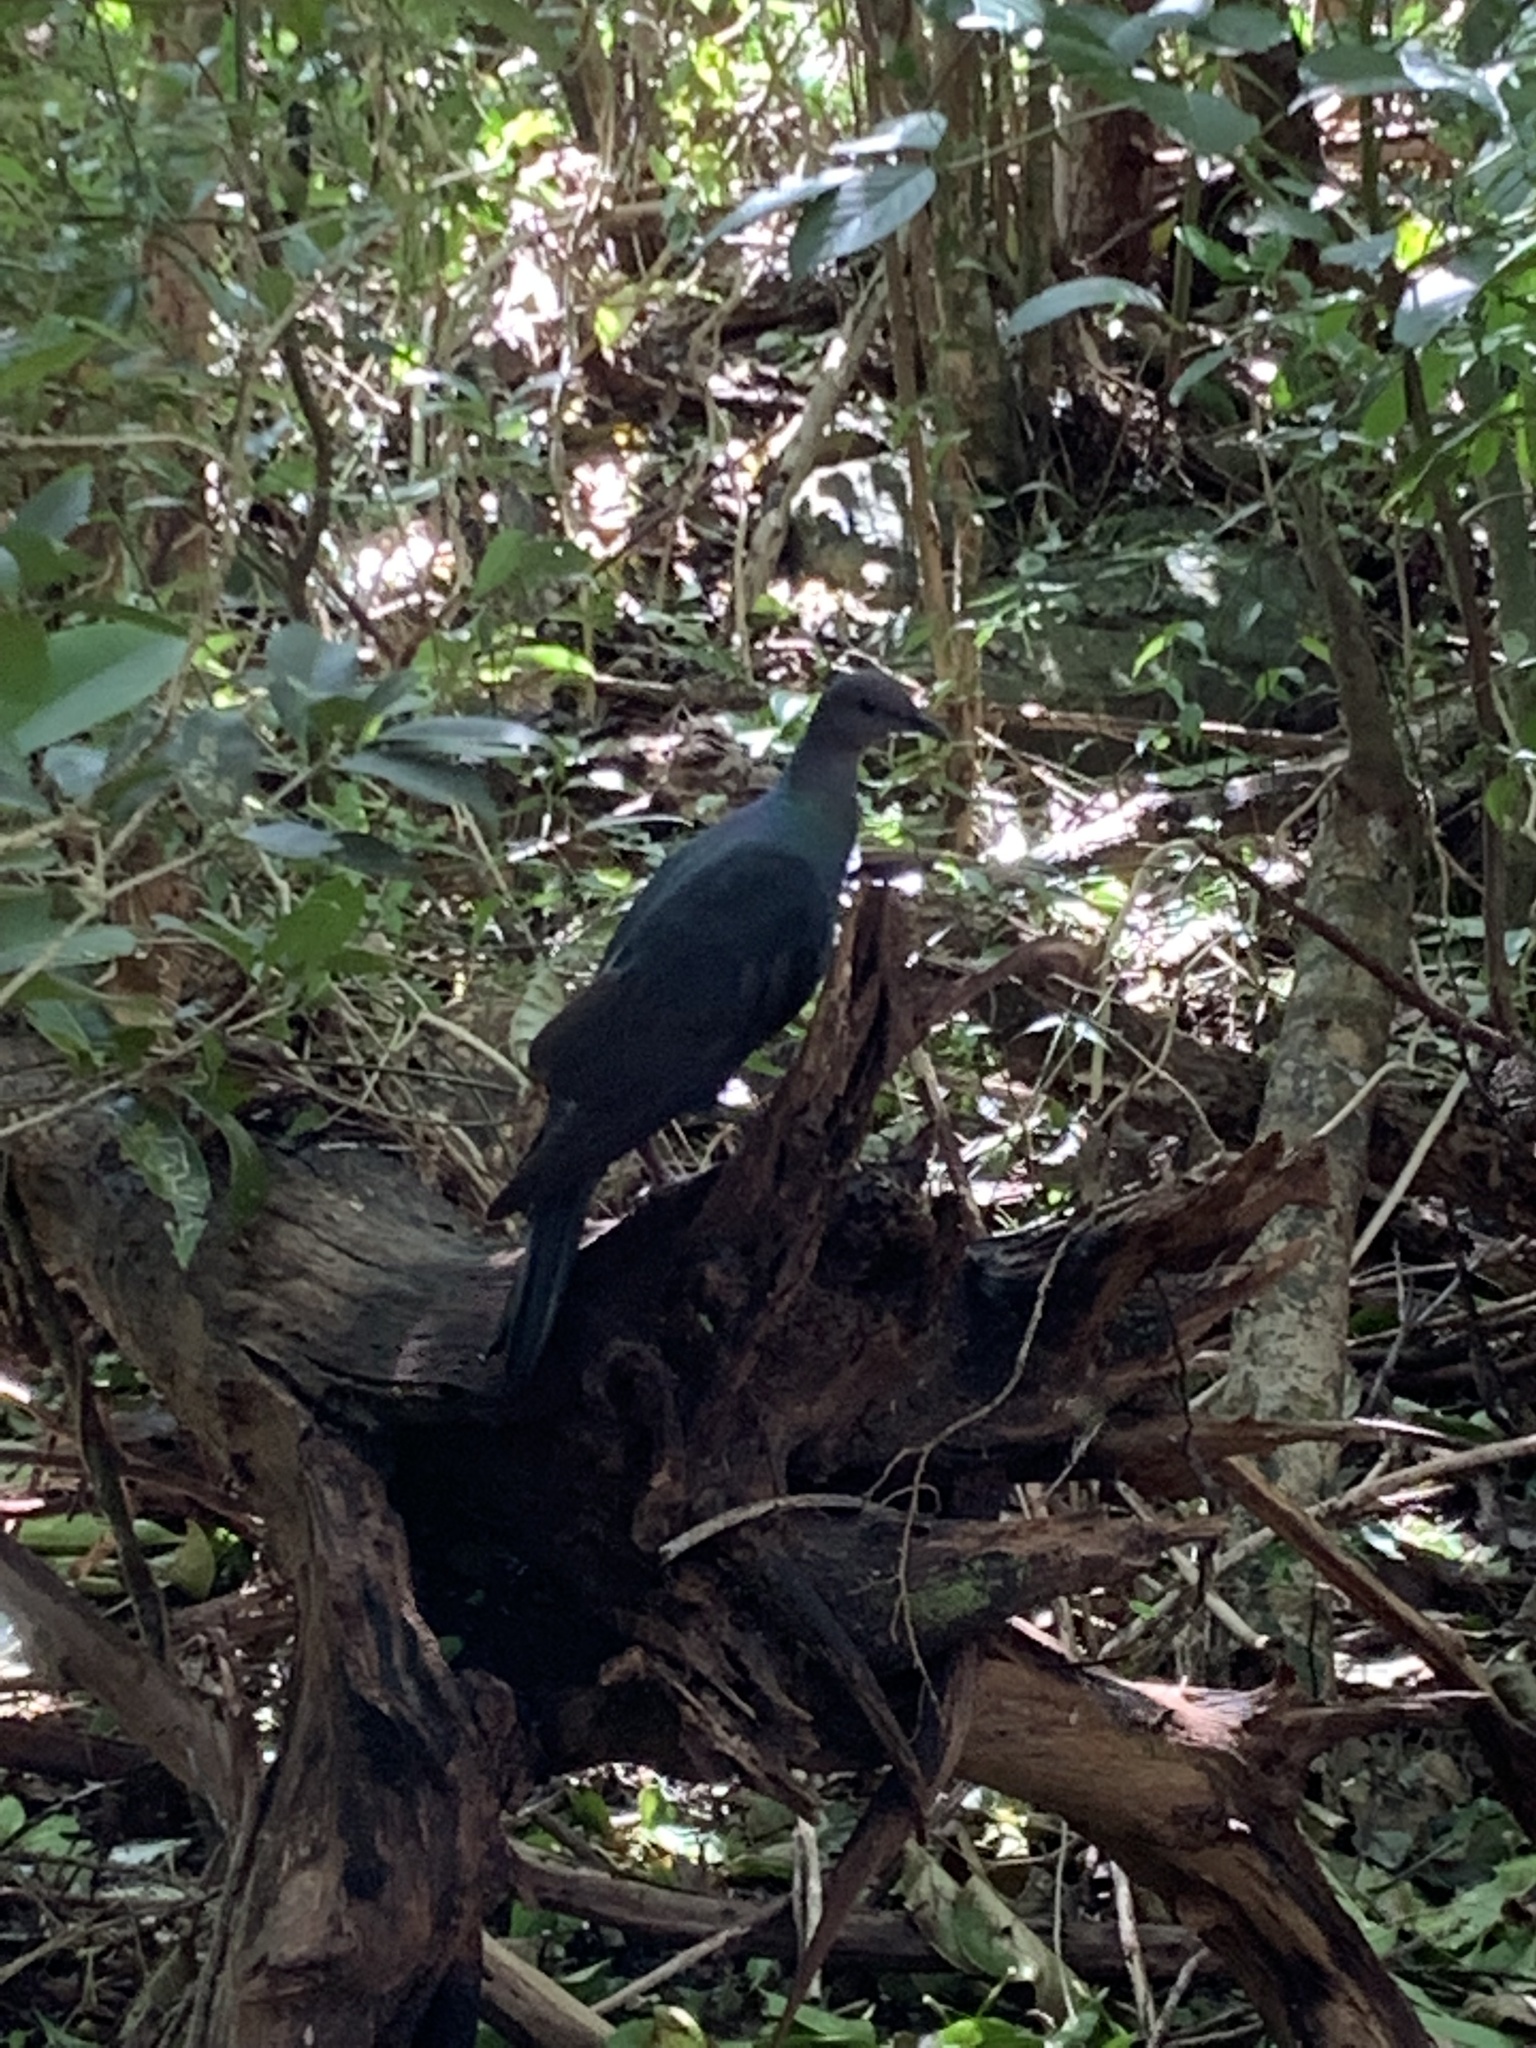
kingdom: Animalia
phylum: Chordata
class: Aves
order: Columbiformes
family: Columbidae
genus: Columba
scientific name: Columba janthina
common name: Japanese wood pigeon
